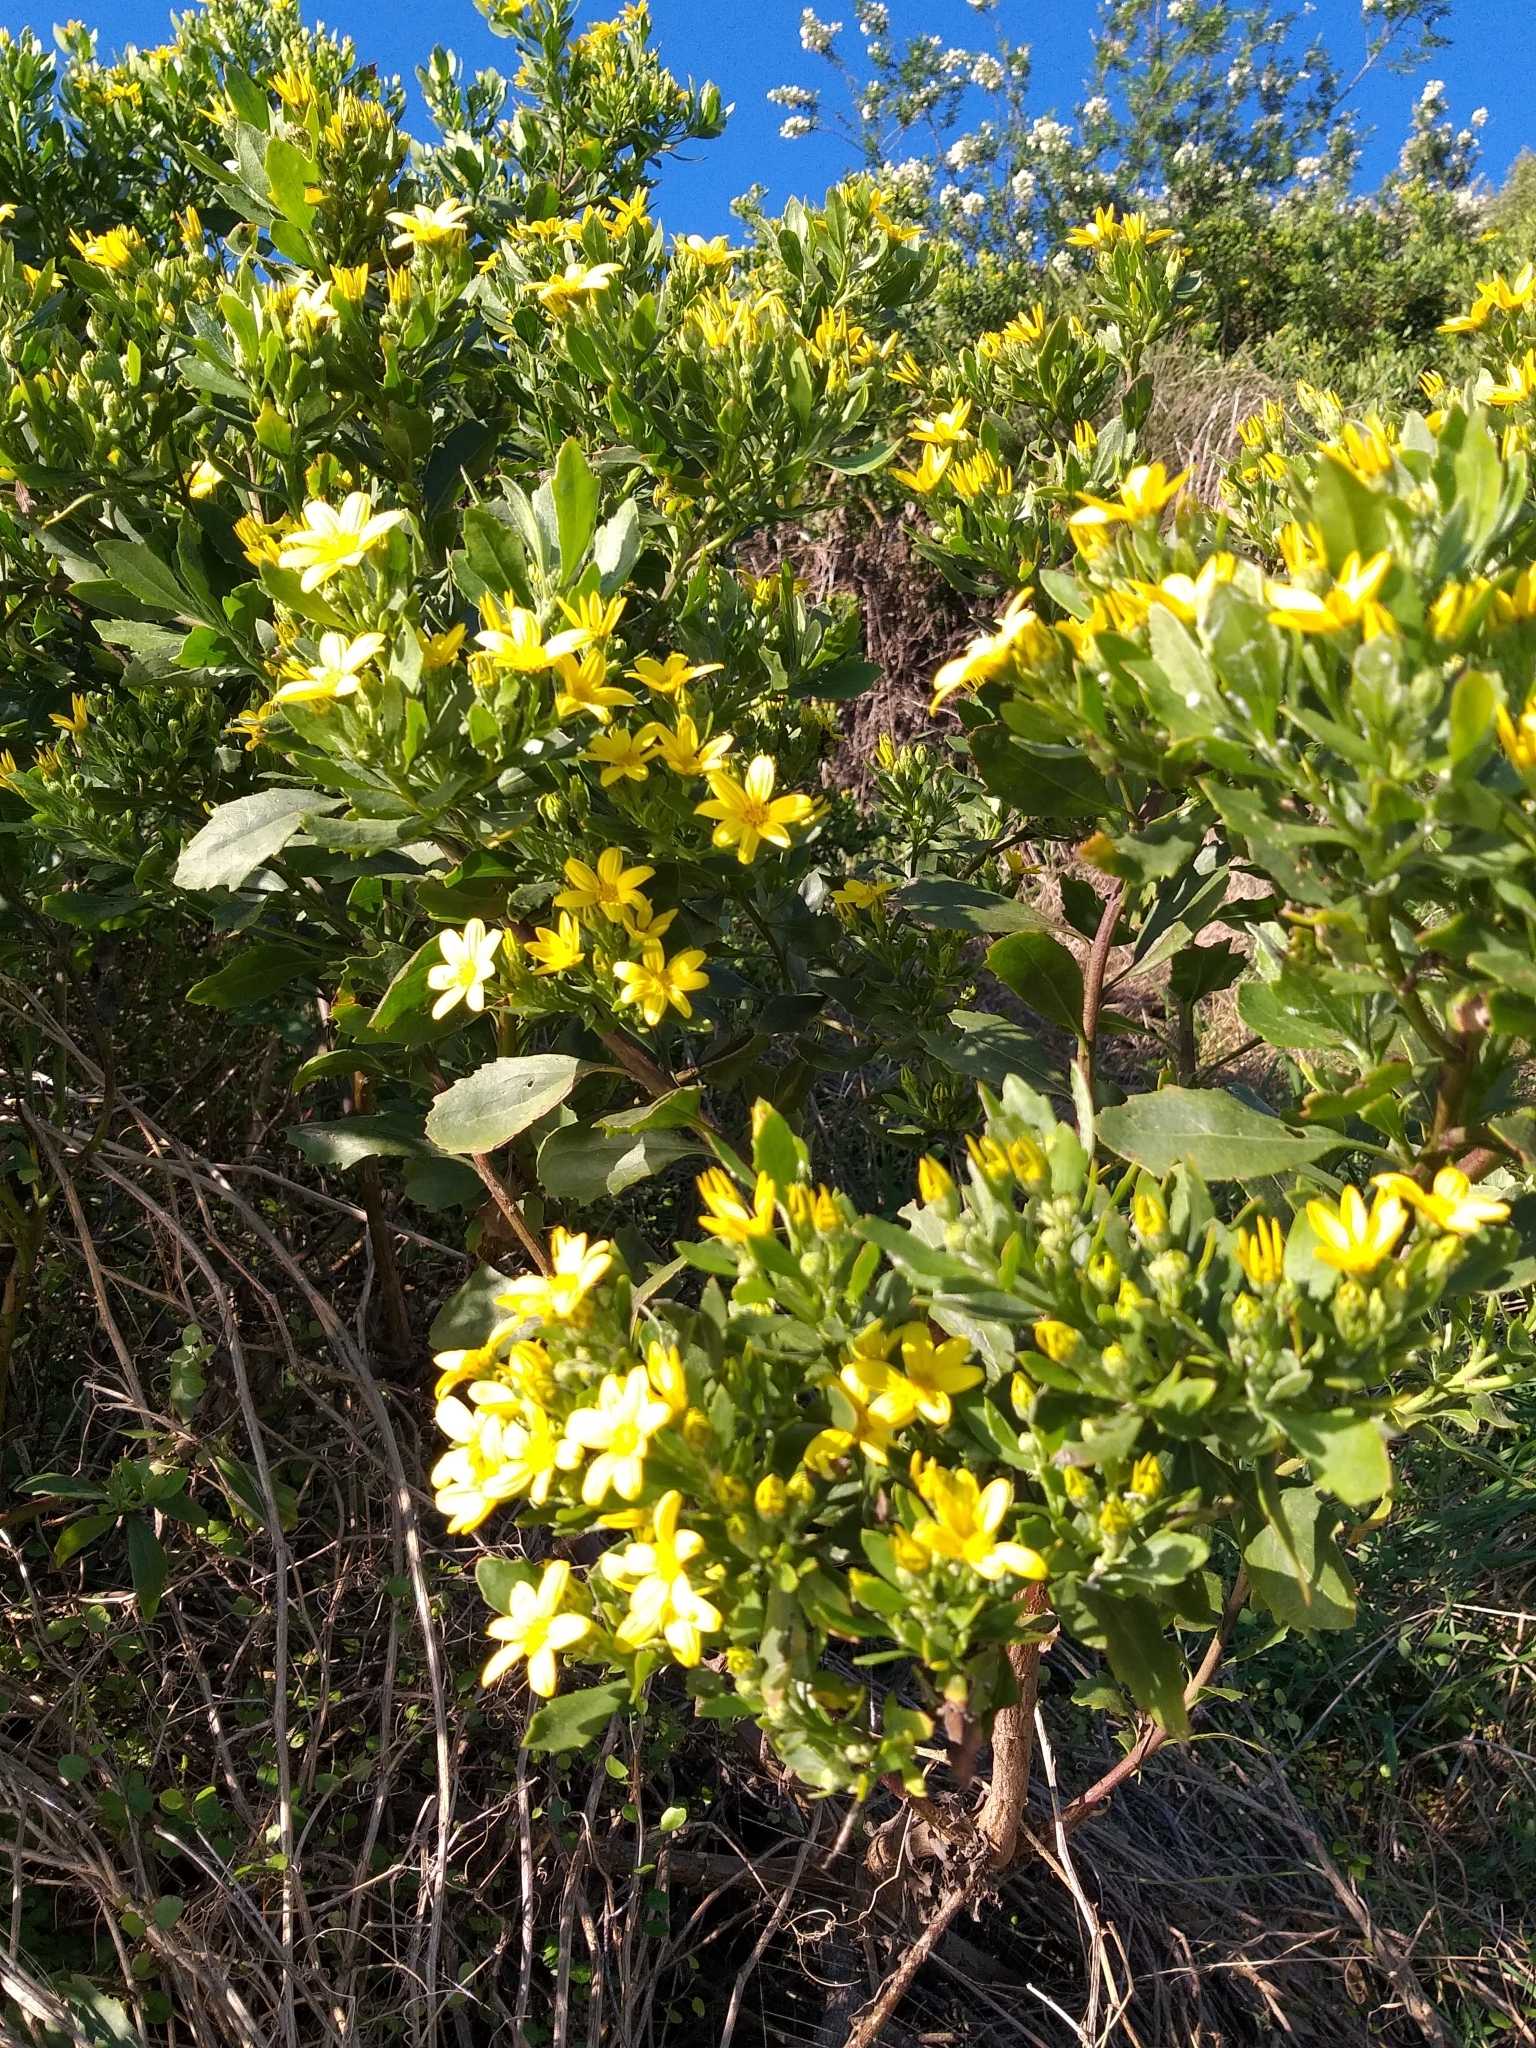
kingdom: Plantae
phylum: Tracheophyta
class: Magnoliopsida
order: Asterales
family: Asteraceae
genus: Osteospermum
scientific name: Osteospermum moniliferum
